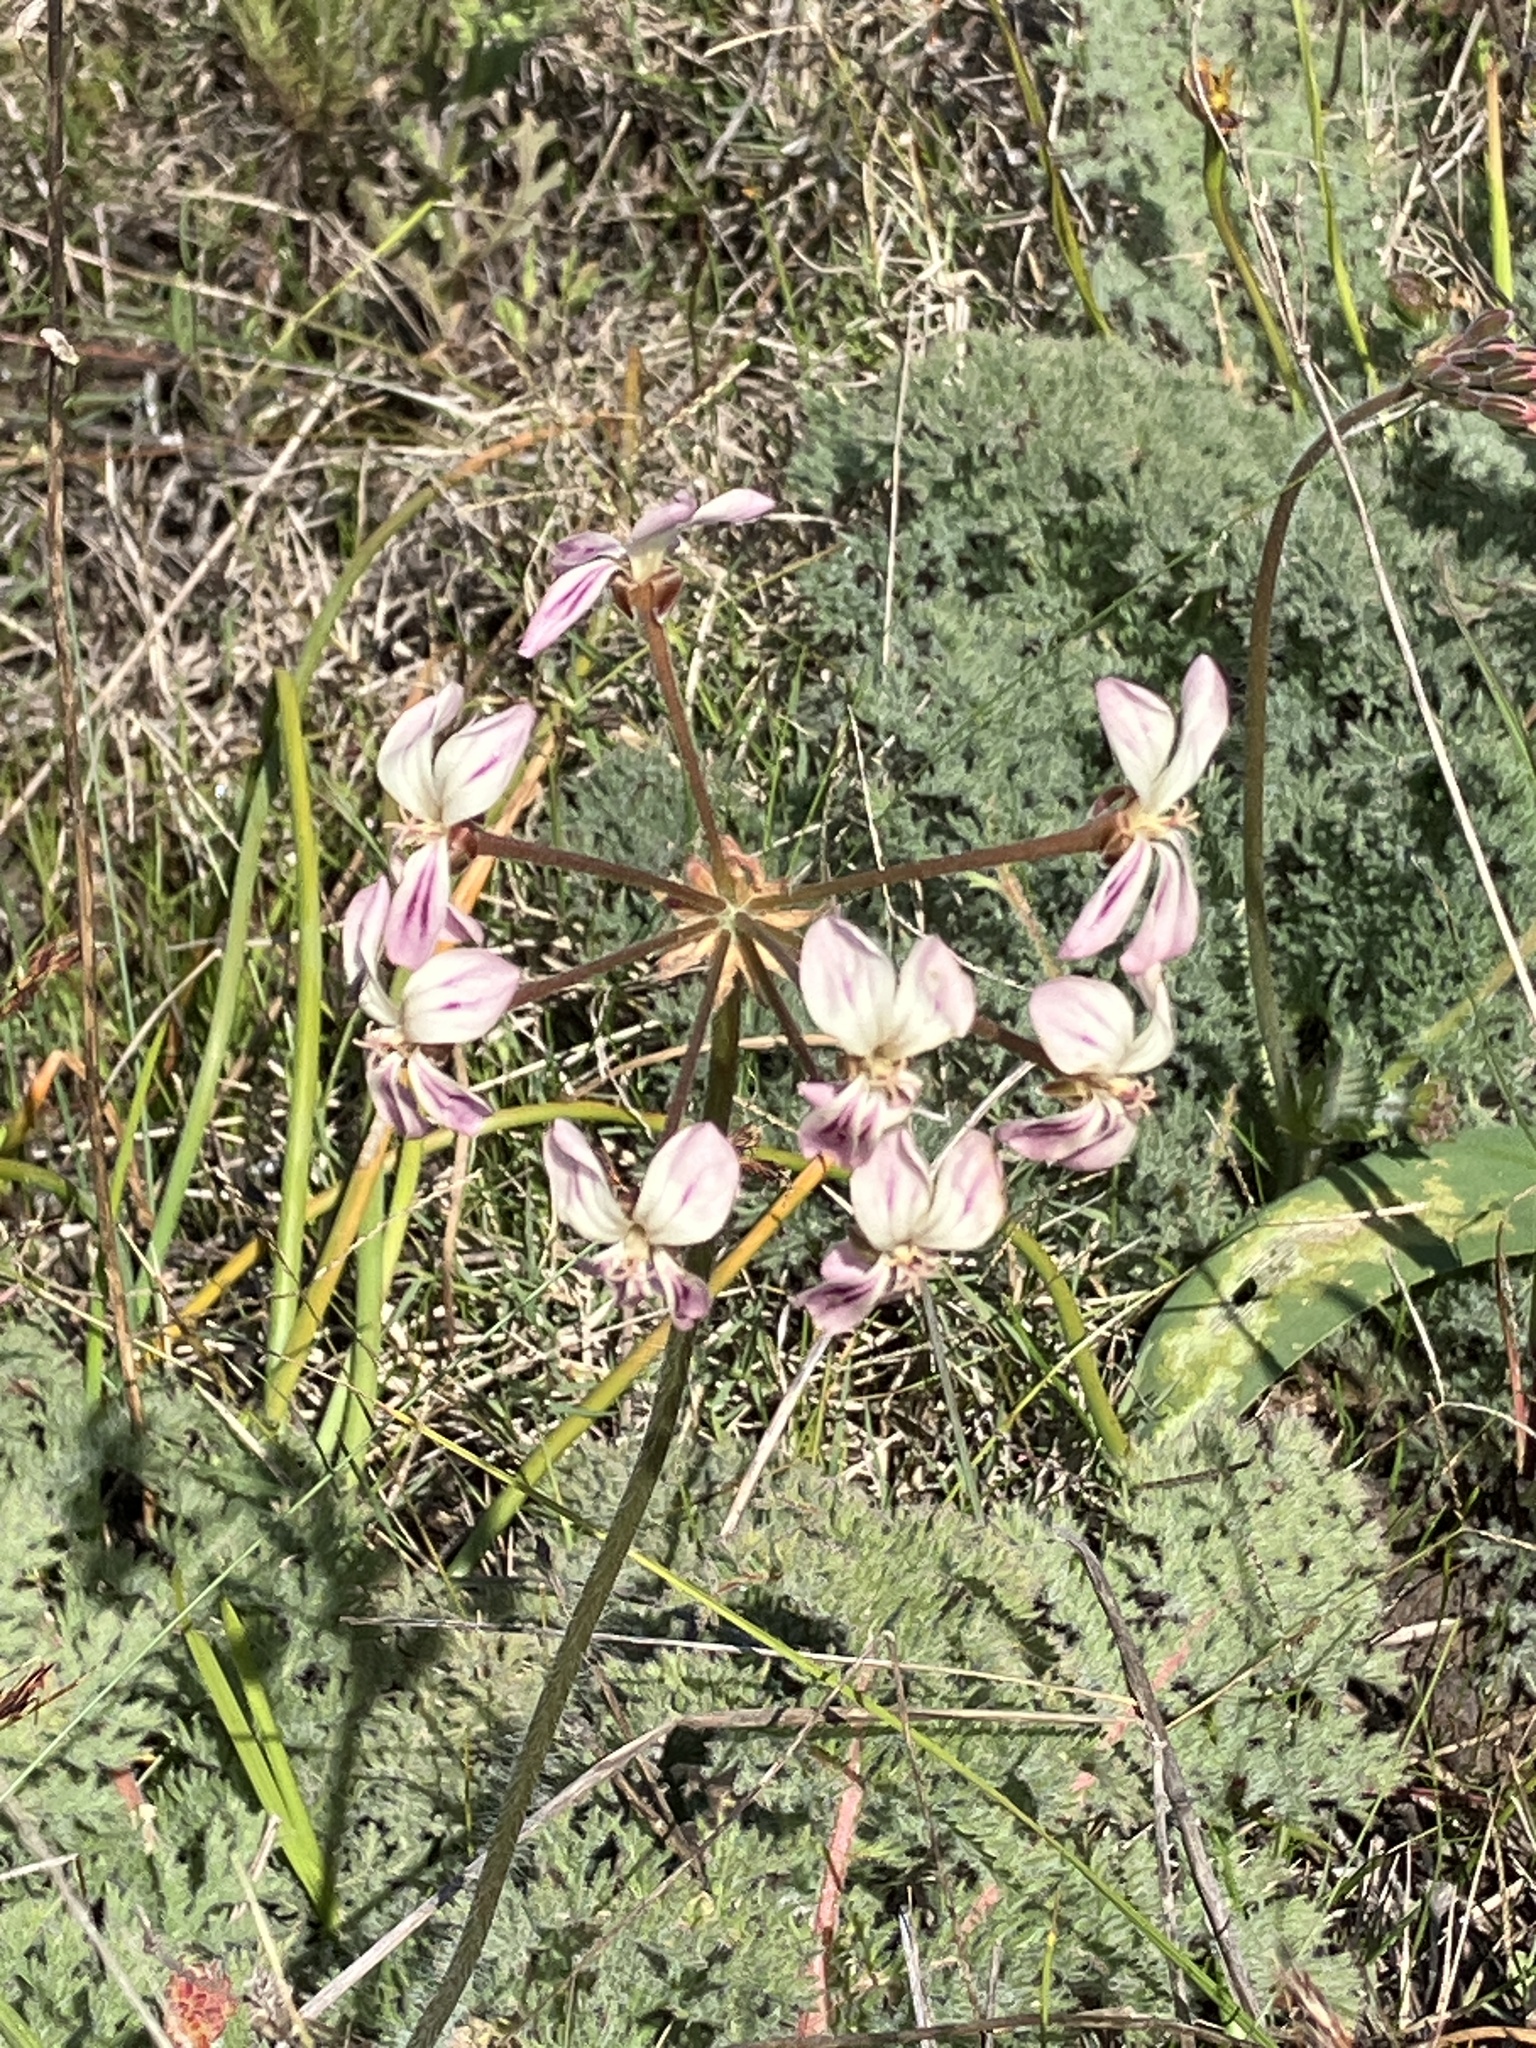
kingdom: Plantae
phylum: Tracheophyta
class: Magnoliopsida
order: Geraniales
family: Geraniaceae
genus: Pelargonium
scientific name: Pelargonium triste
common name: Night-scent pelargonium
